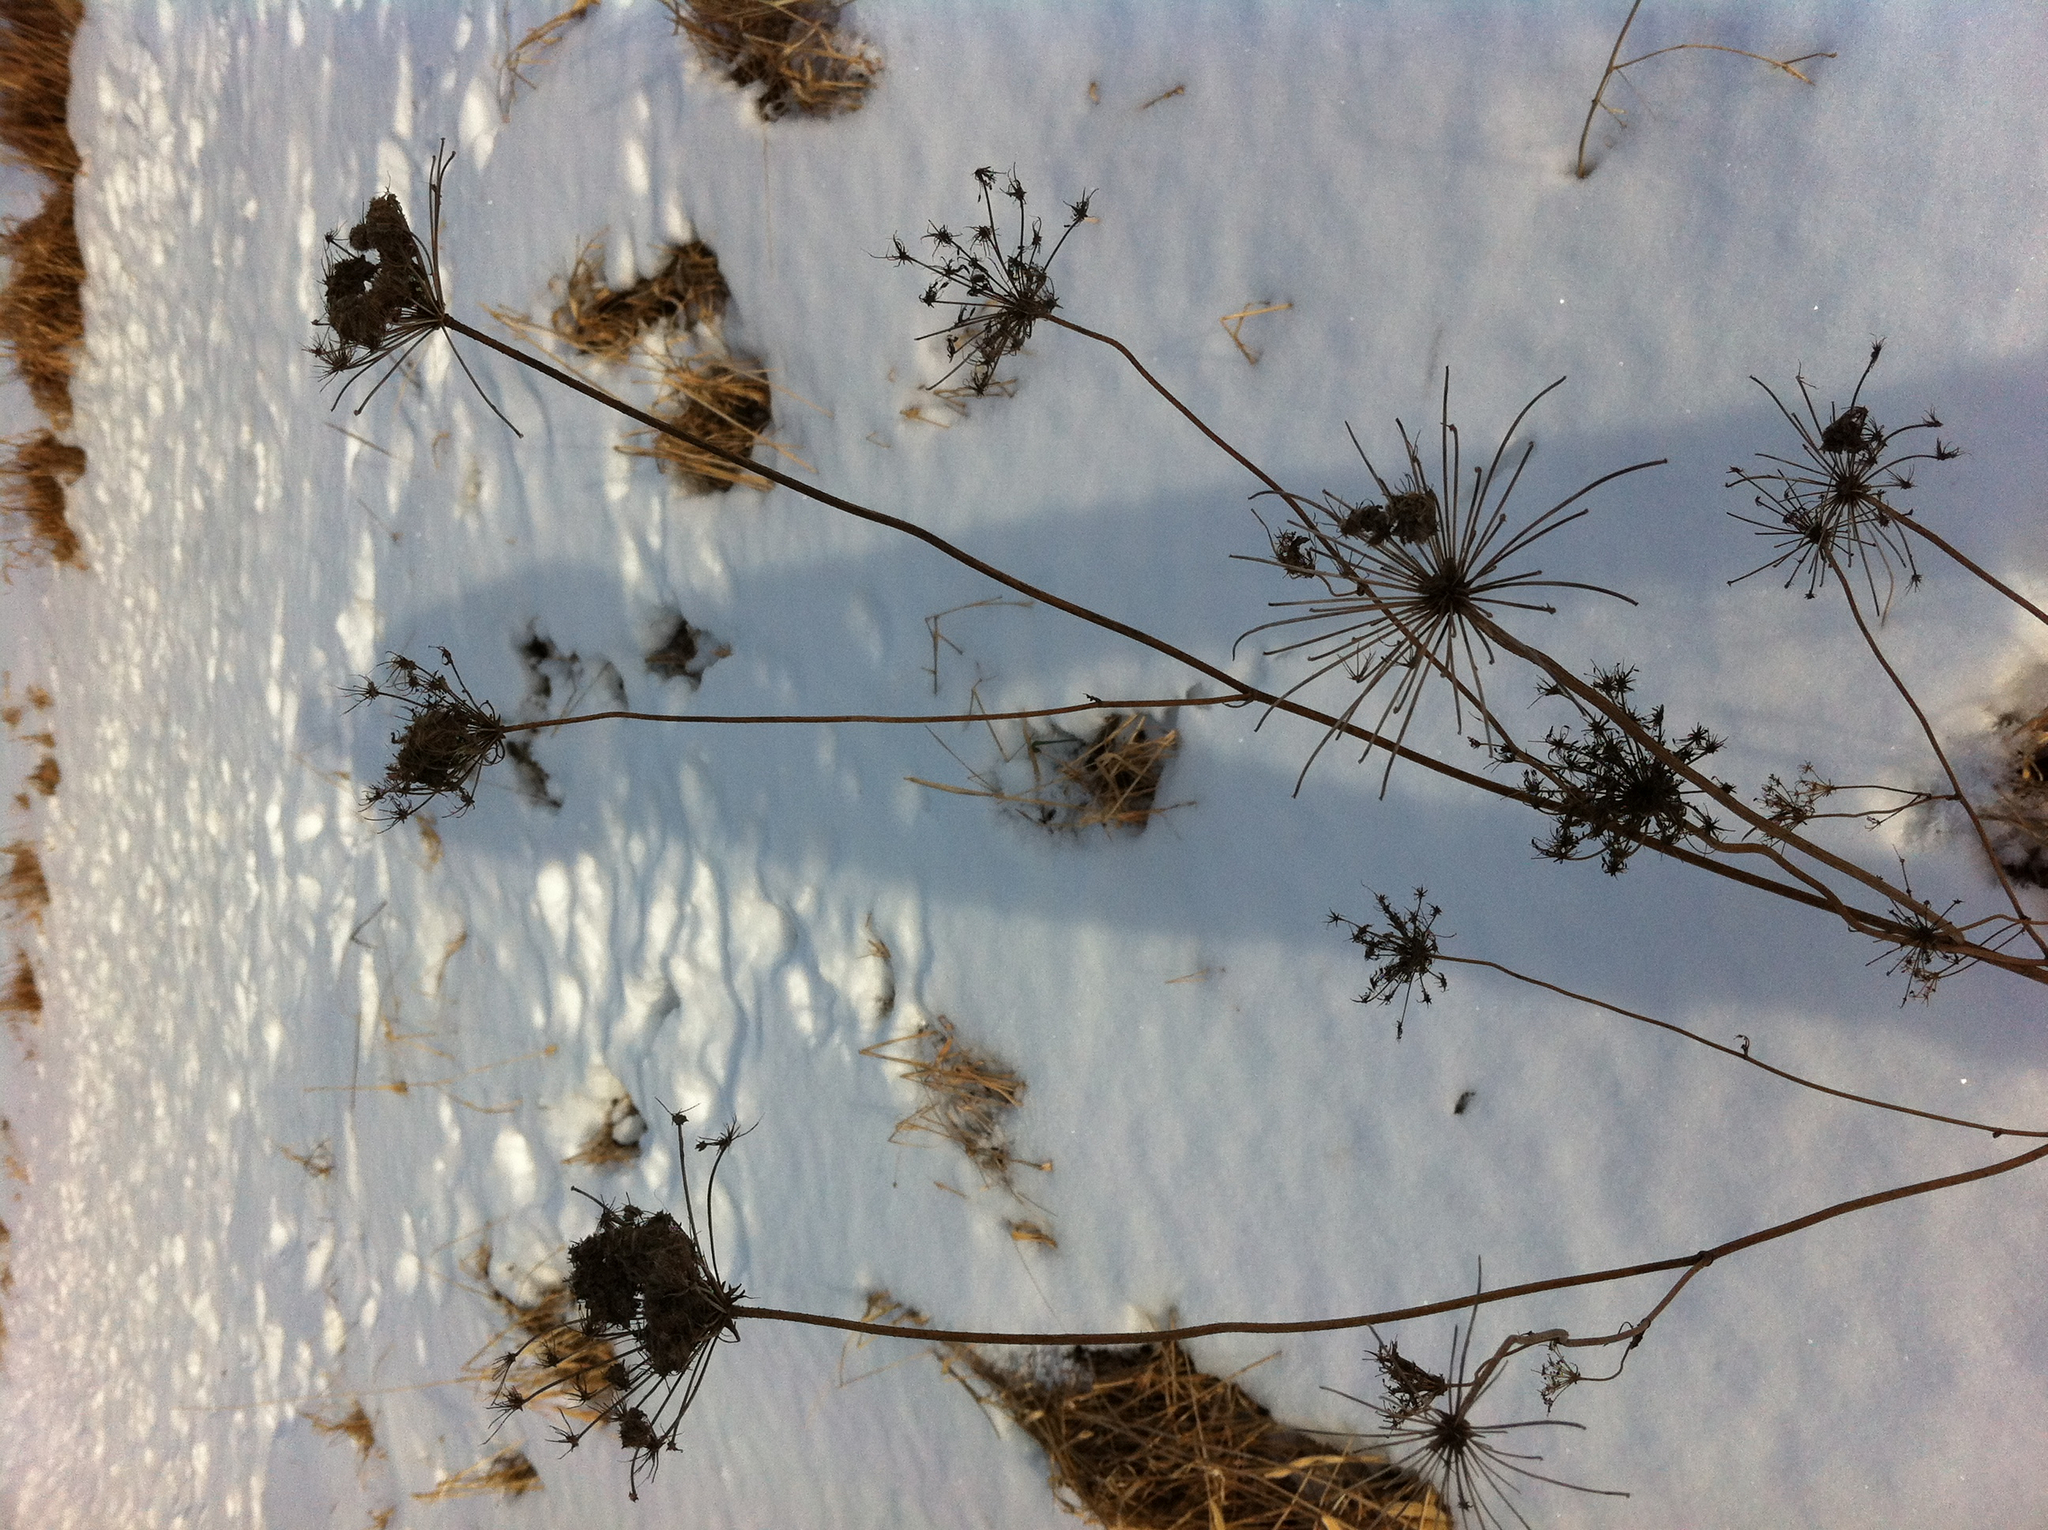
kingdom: Plantae
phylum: Tracheophyta
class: Magnoliopsida
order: Apiales
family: Apiaceae
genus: Daucus
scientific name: Daucus carota
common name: Wild carrot
